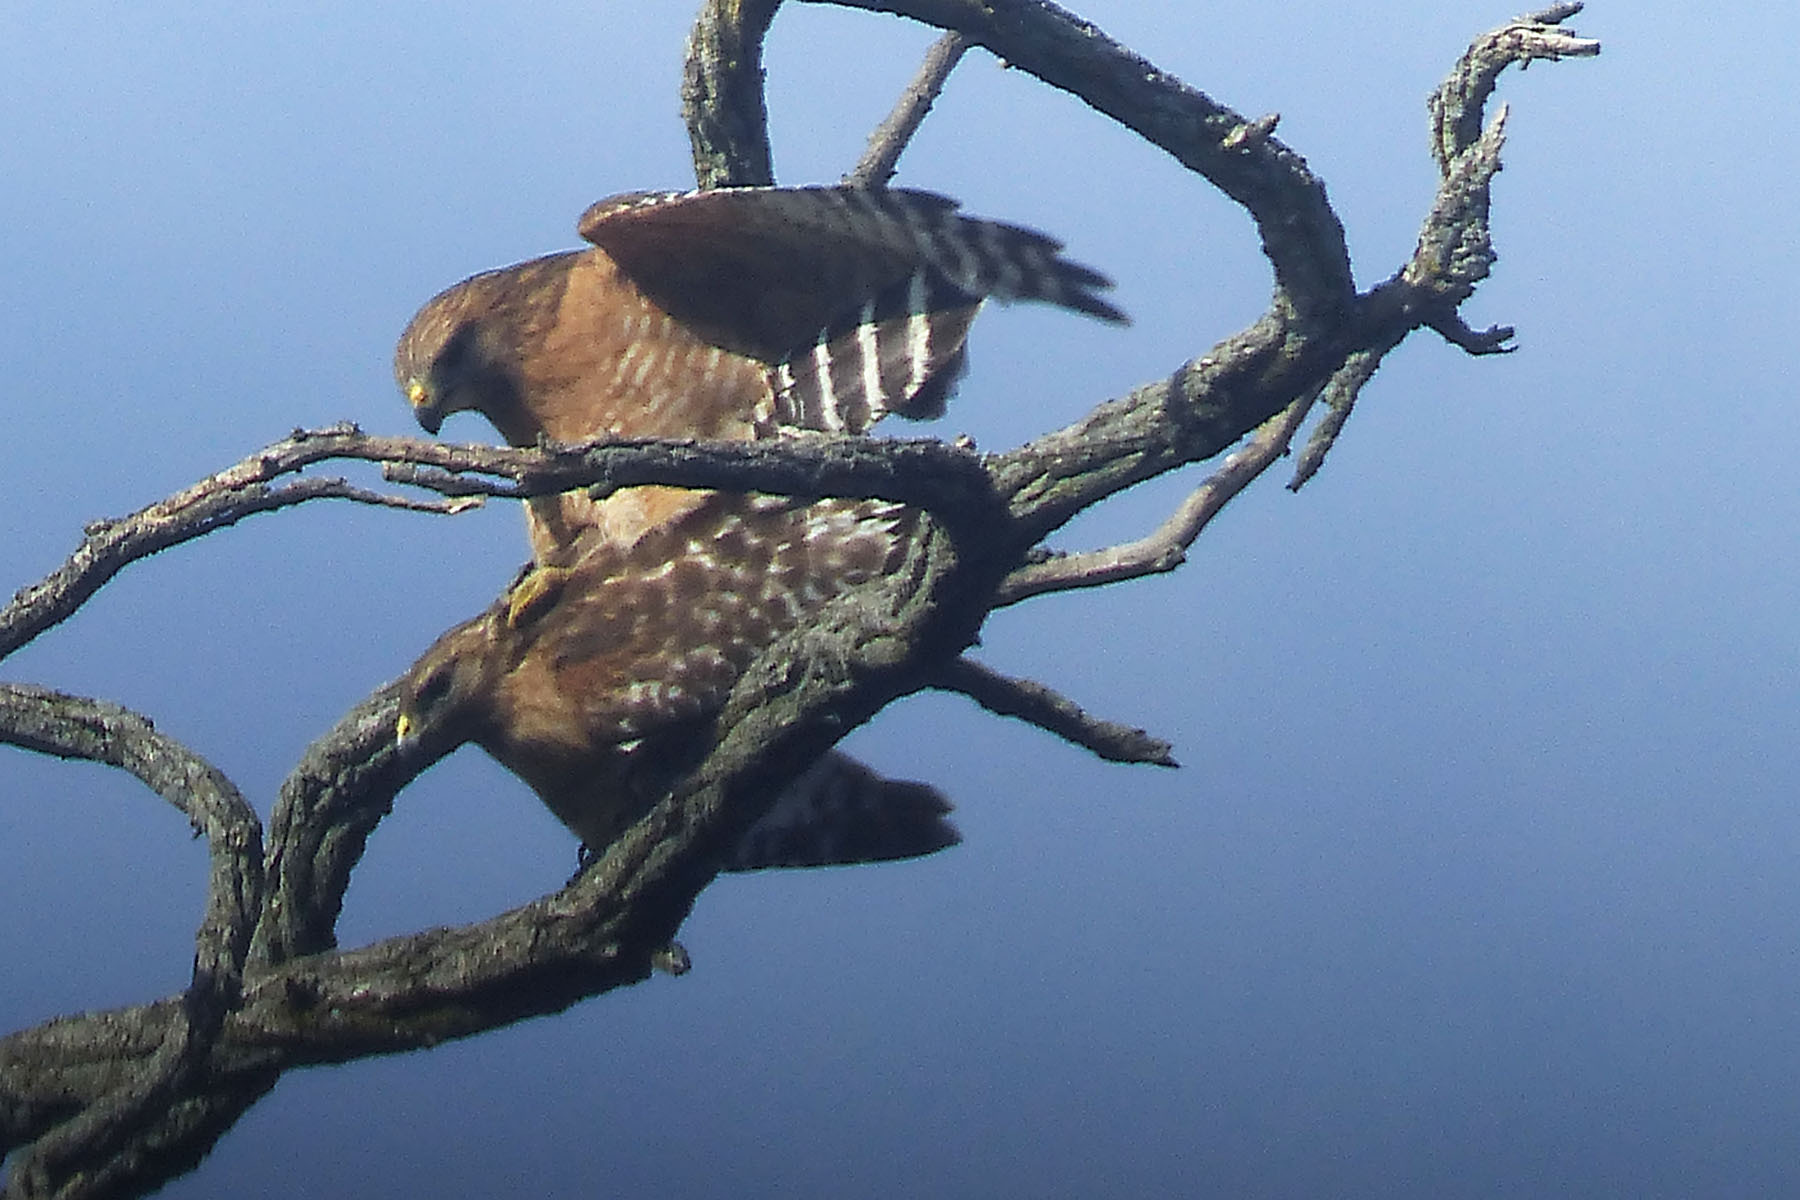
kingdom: Animalia
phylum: Chordata
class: Aves
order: Accipitriformes
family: Accipitridae
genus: Buteo
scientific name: Buteo lineatus
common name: Red-shouldered hawk
